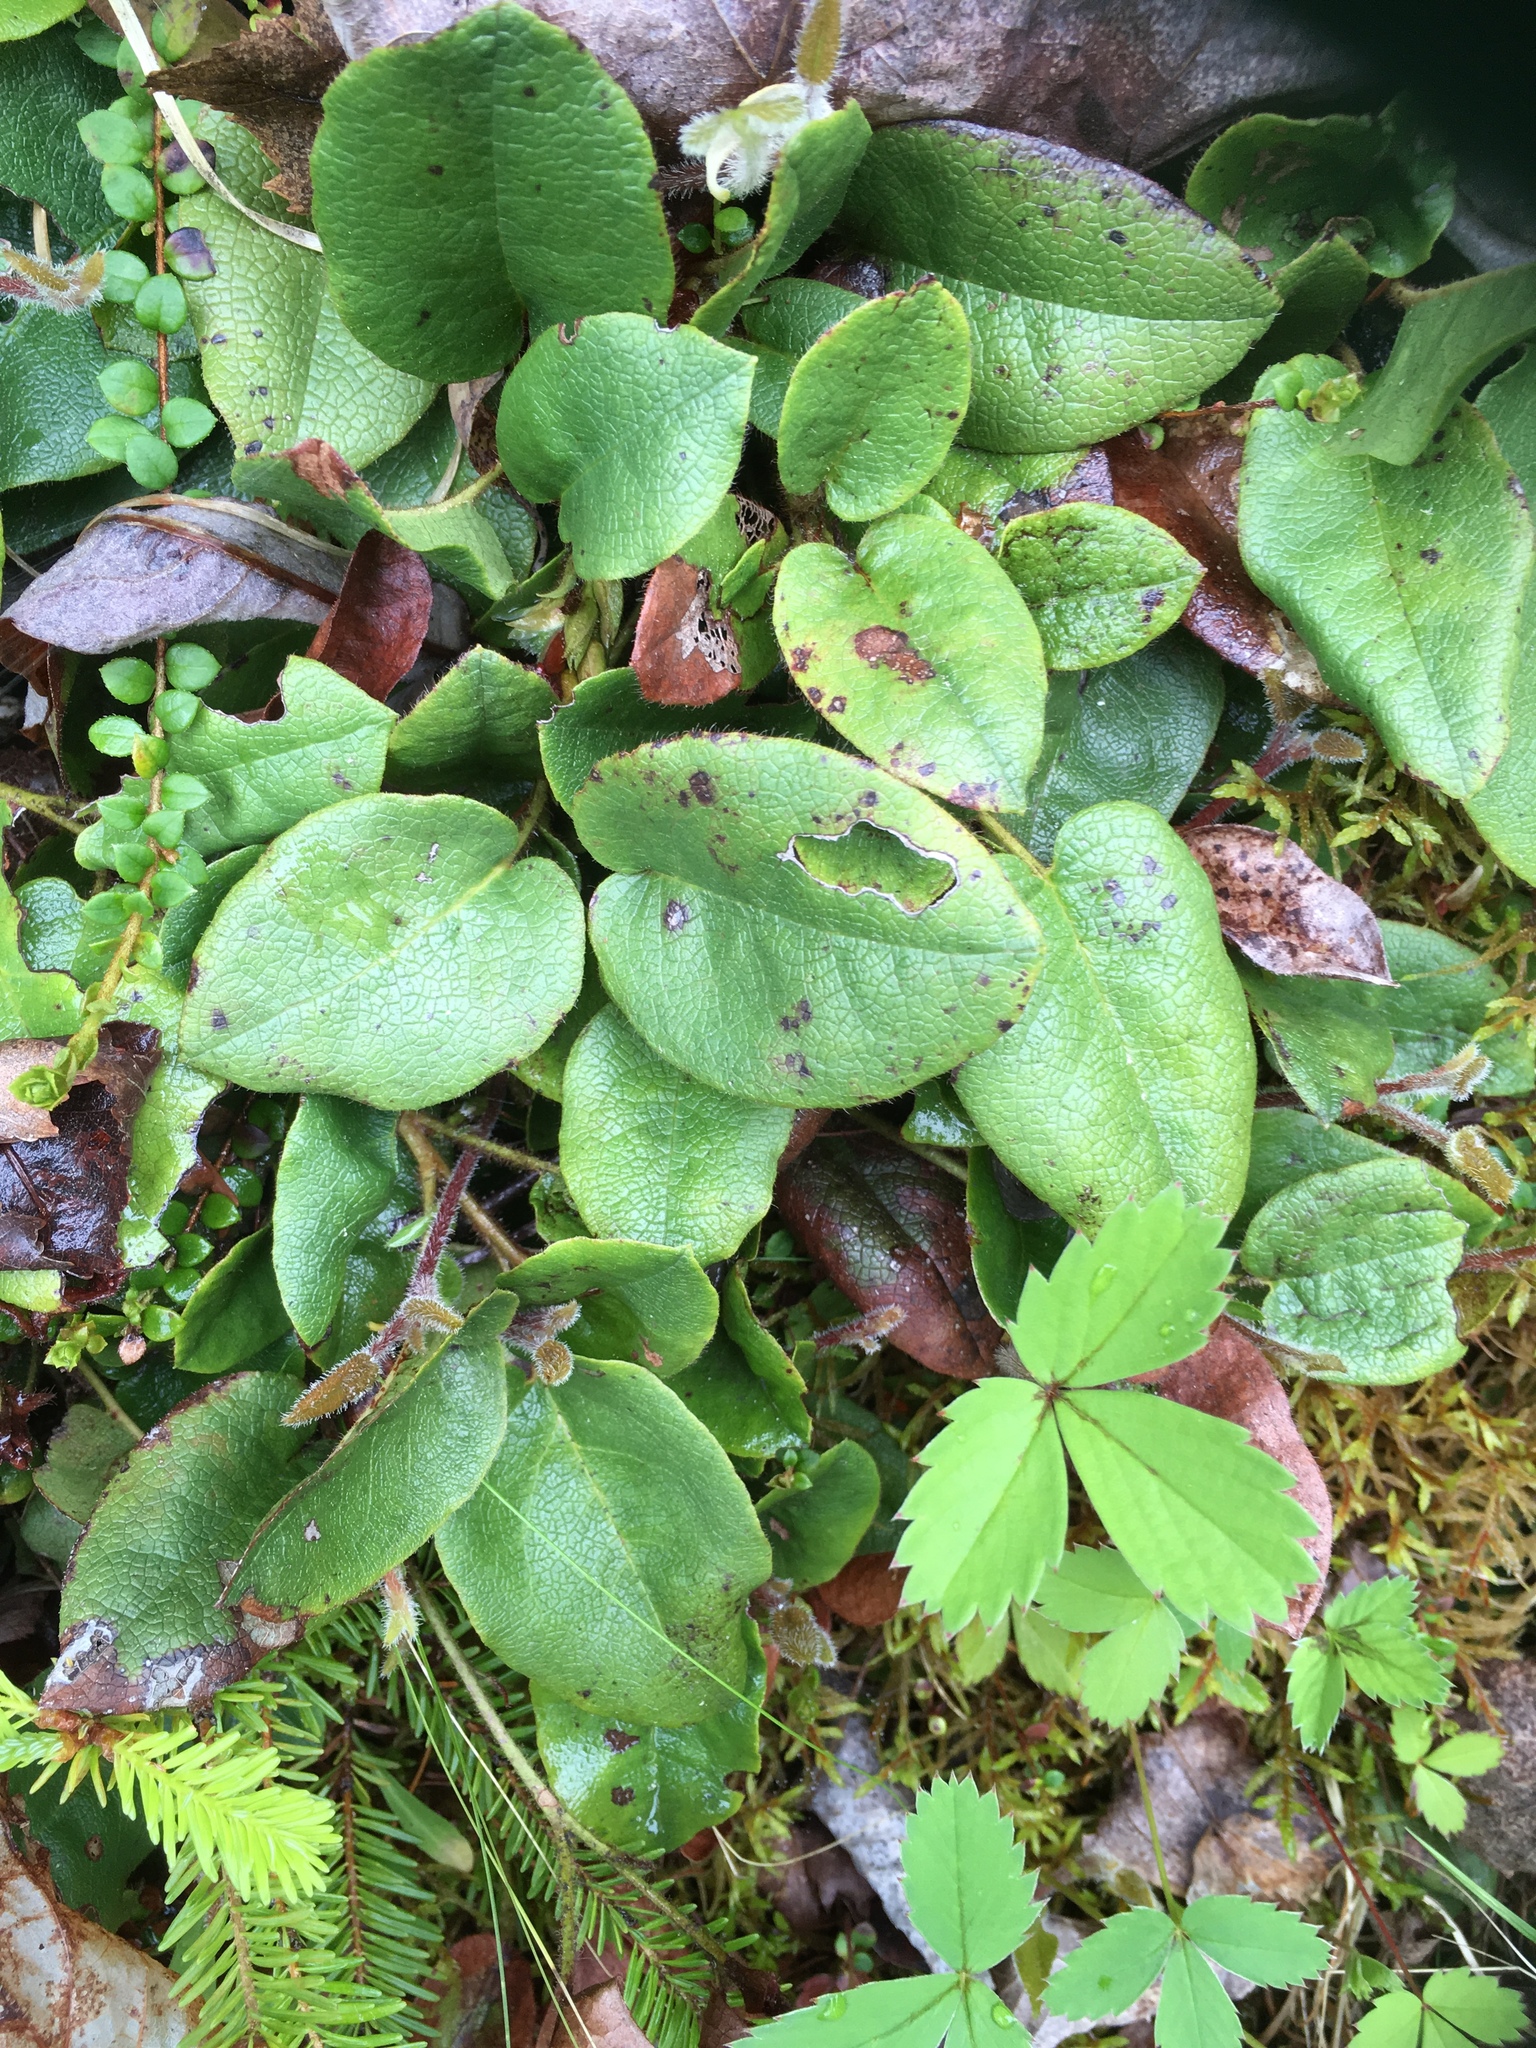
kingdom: Plantae
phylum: Tracheophyta
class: Magnoliopsida
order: Ericales
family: Ericaceae
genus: Epigaea
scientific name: Epigaea repens
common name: Gravelroot
